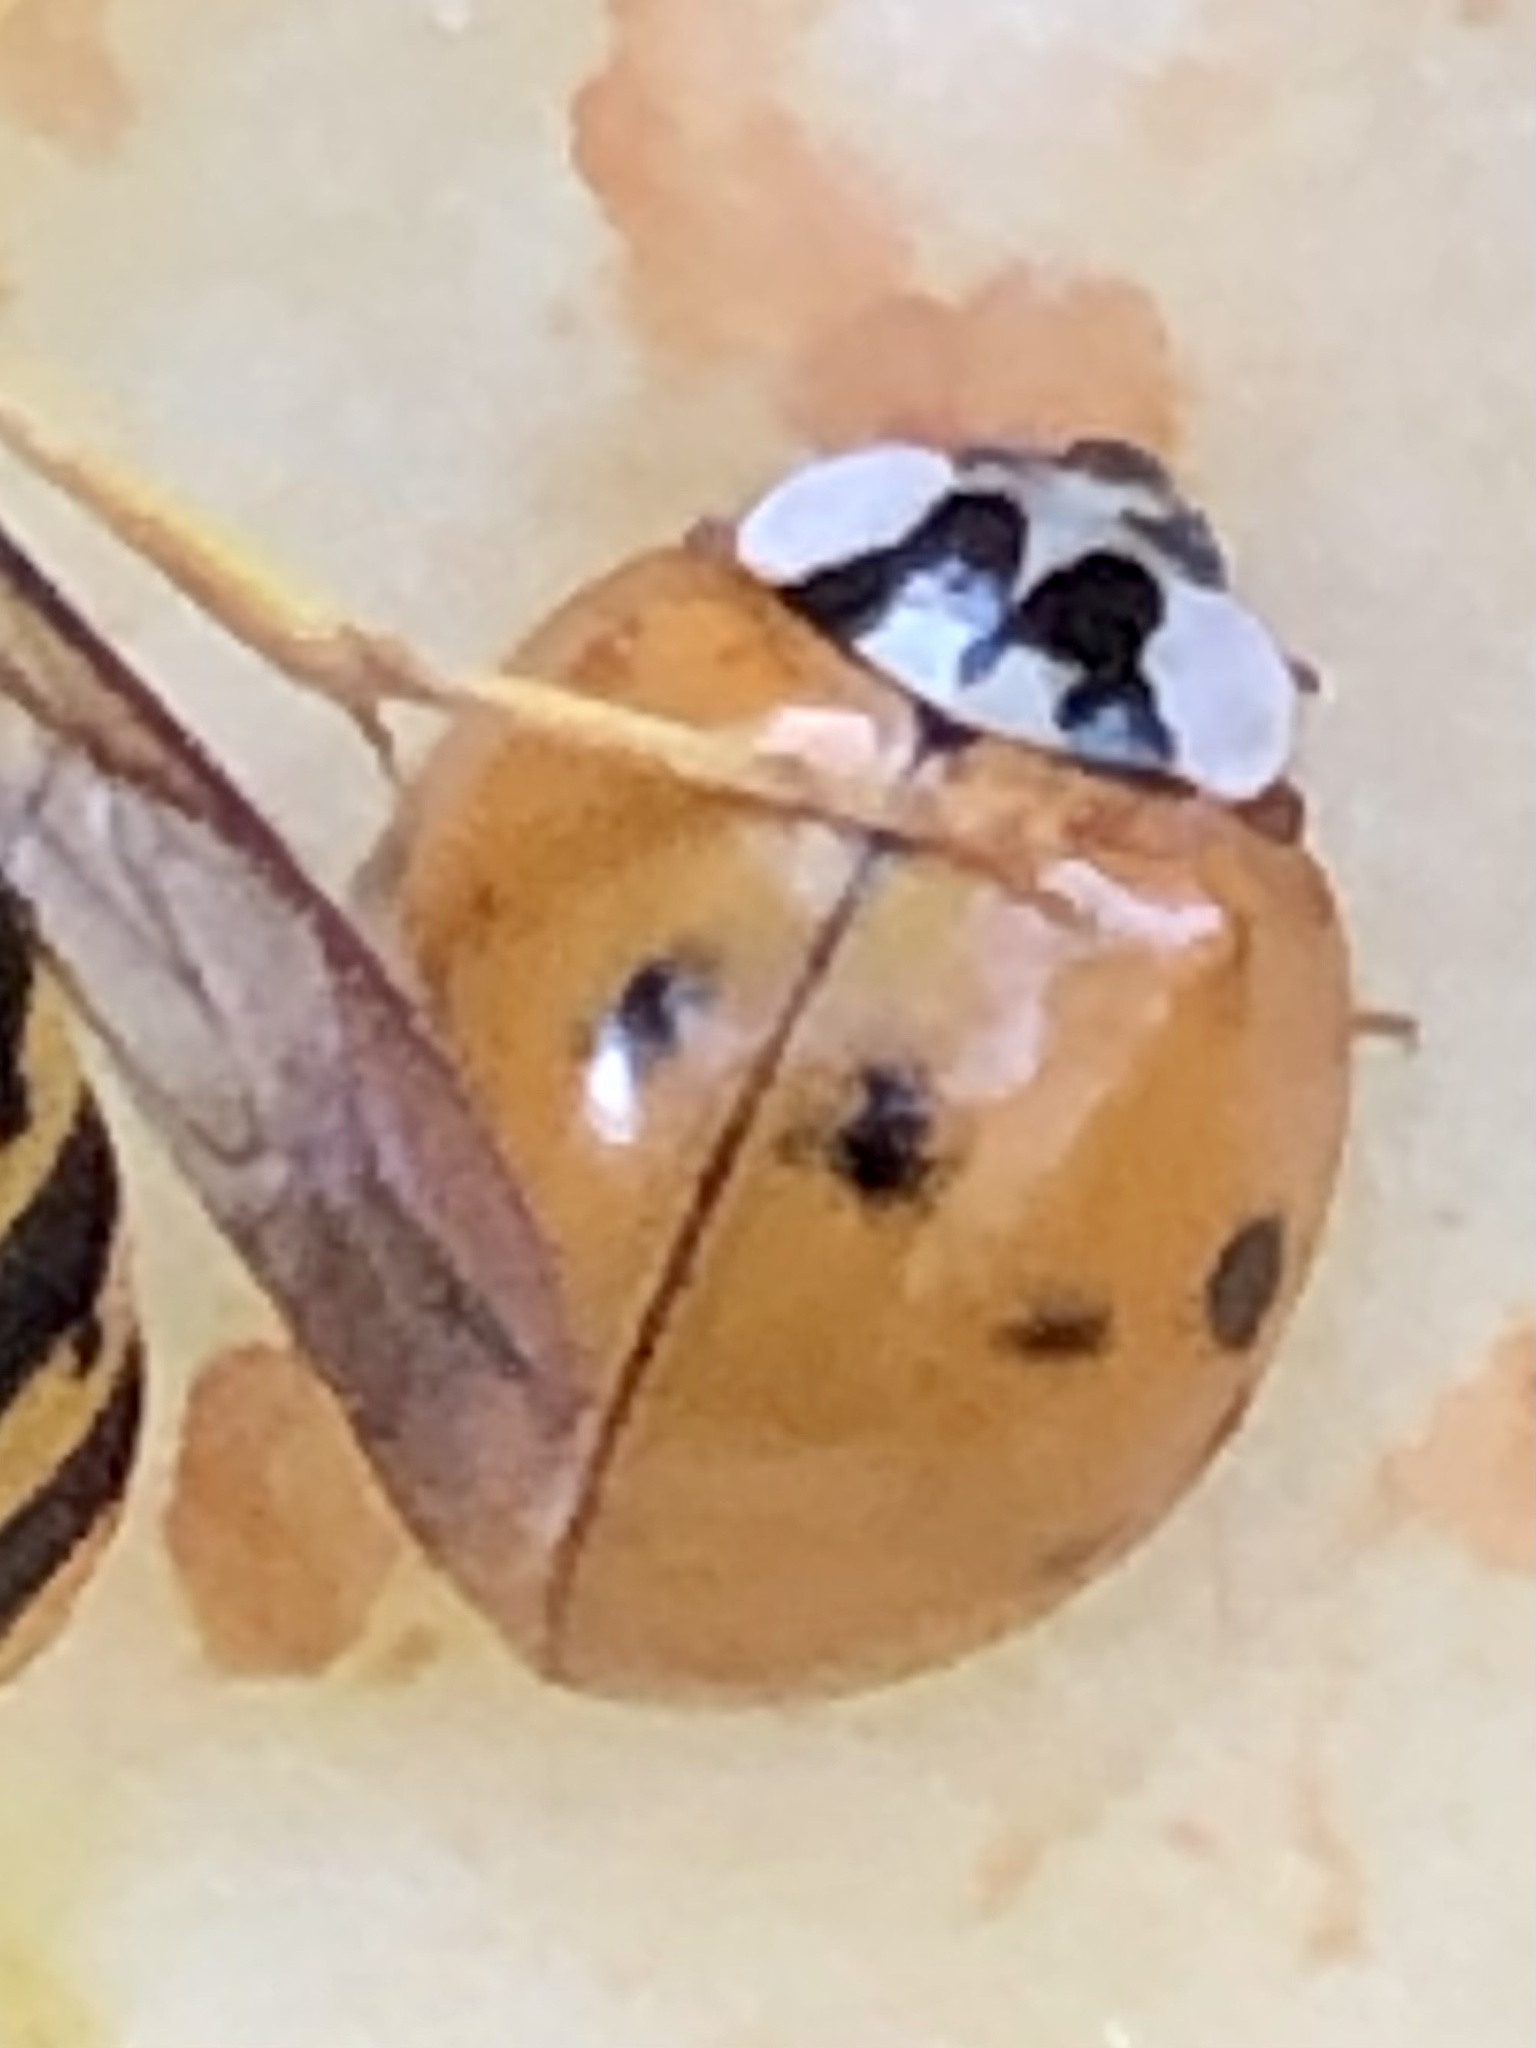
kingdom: Animalia
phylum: Arthropoda
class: Insecta
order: Coleoptera
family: Coccinellidae
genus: Harmonia
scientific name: Harmonia axyridis
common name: Harlequin ladybird
